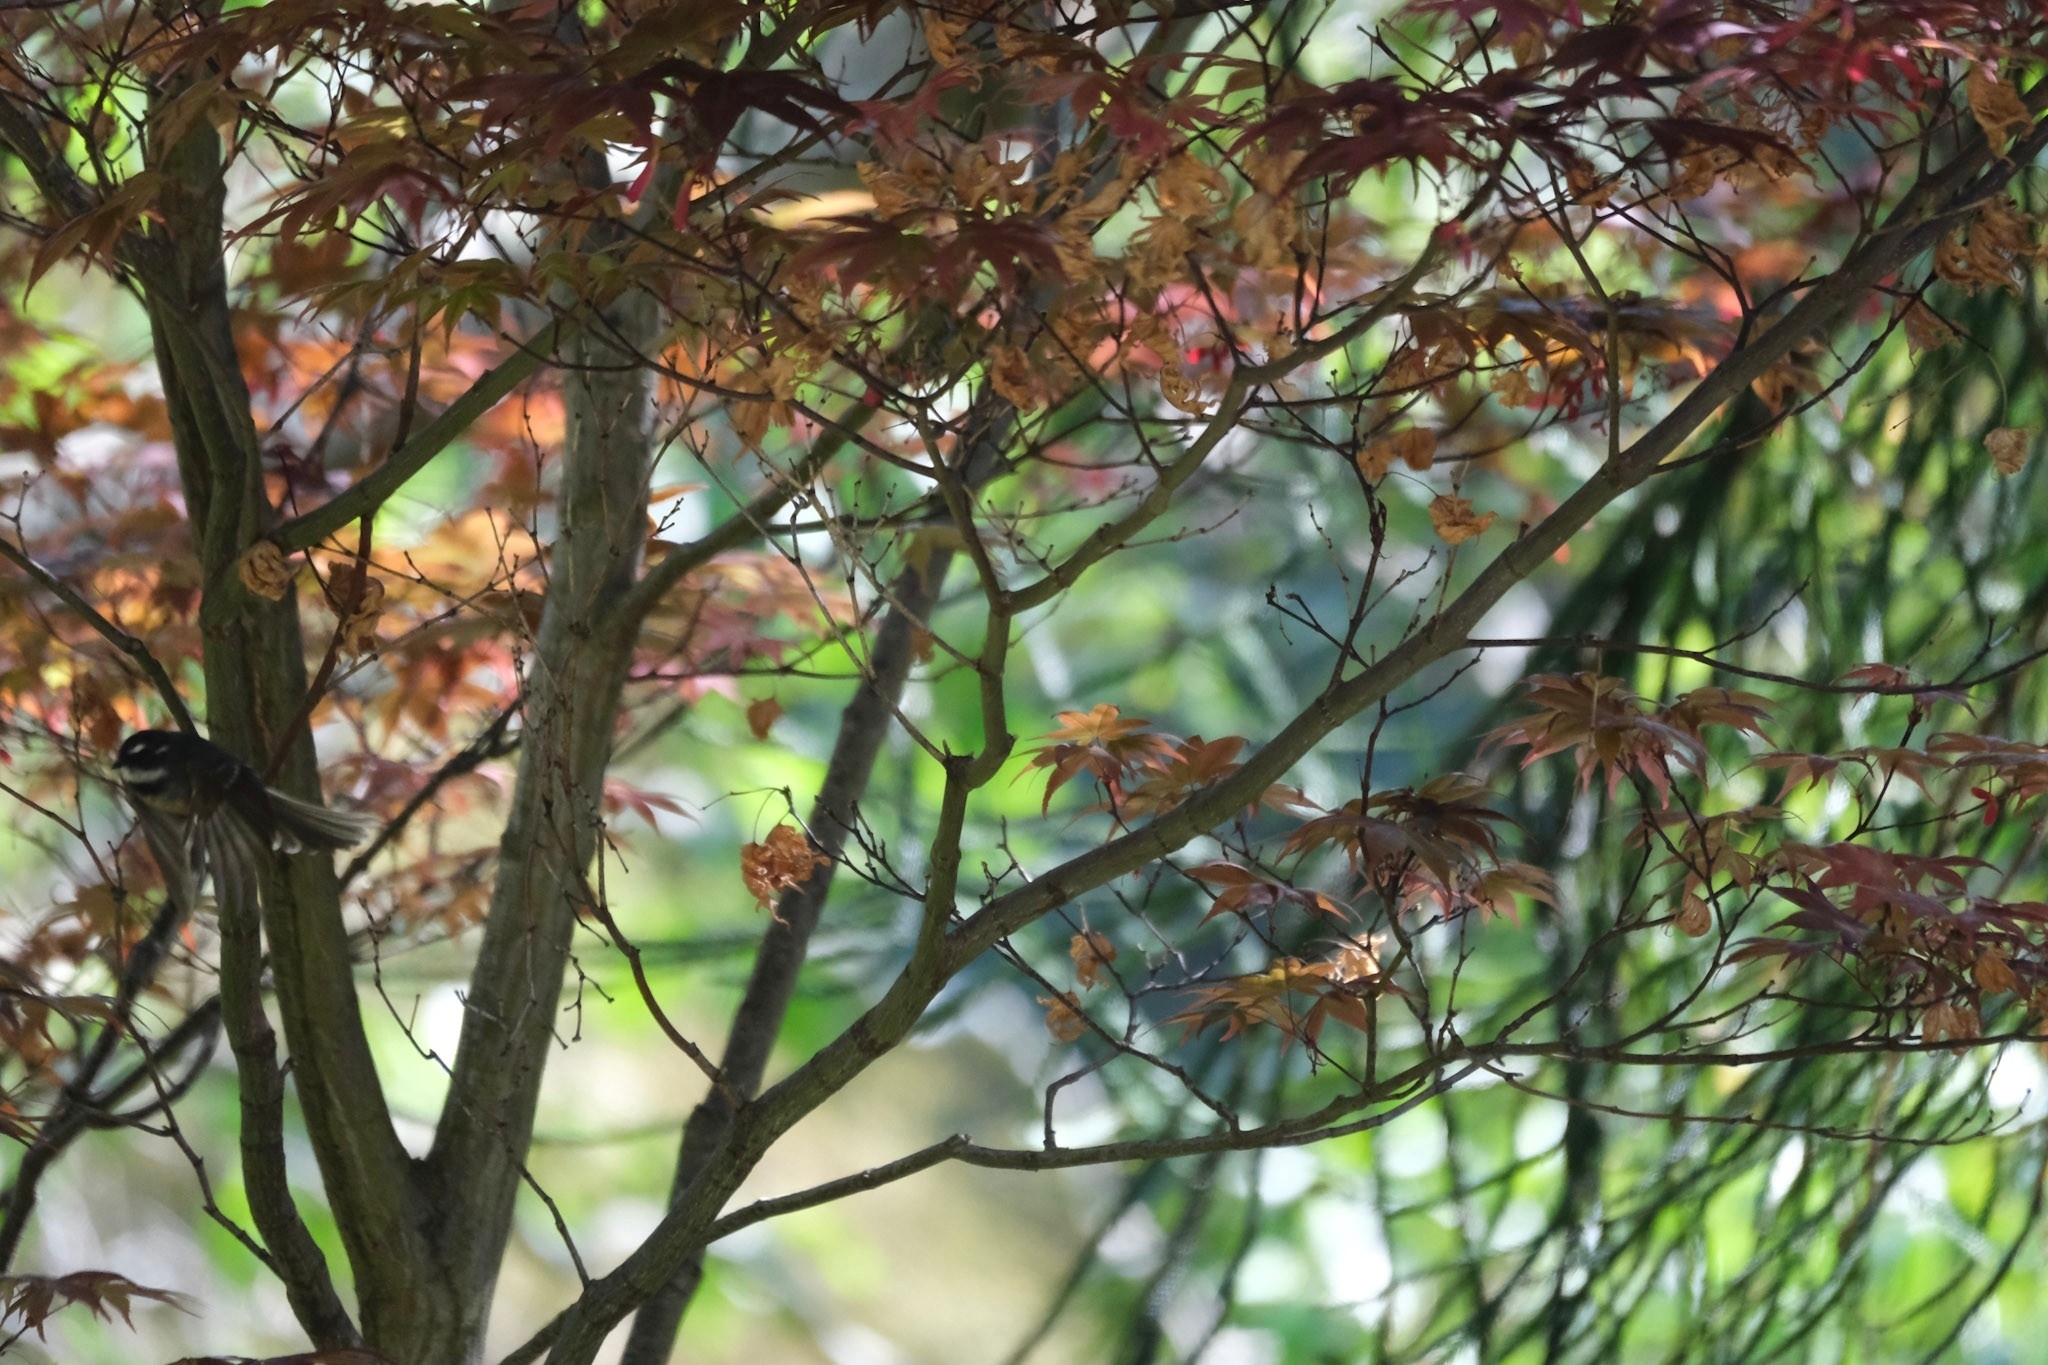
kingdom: Animalia
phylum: Chordata
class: Aves
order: Passeriformes
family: Rhipiduridae
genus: Rhipidura
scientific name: Rhipidura albiscapa
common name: Grey fantail
